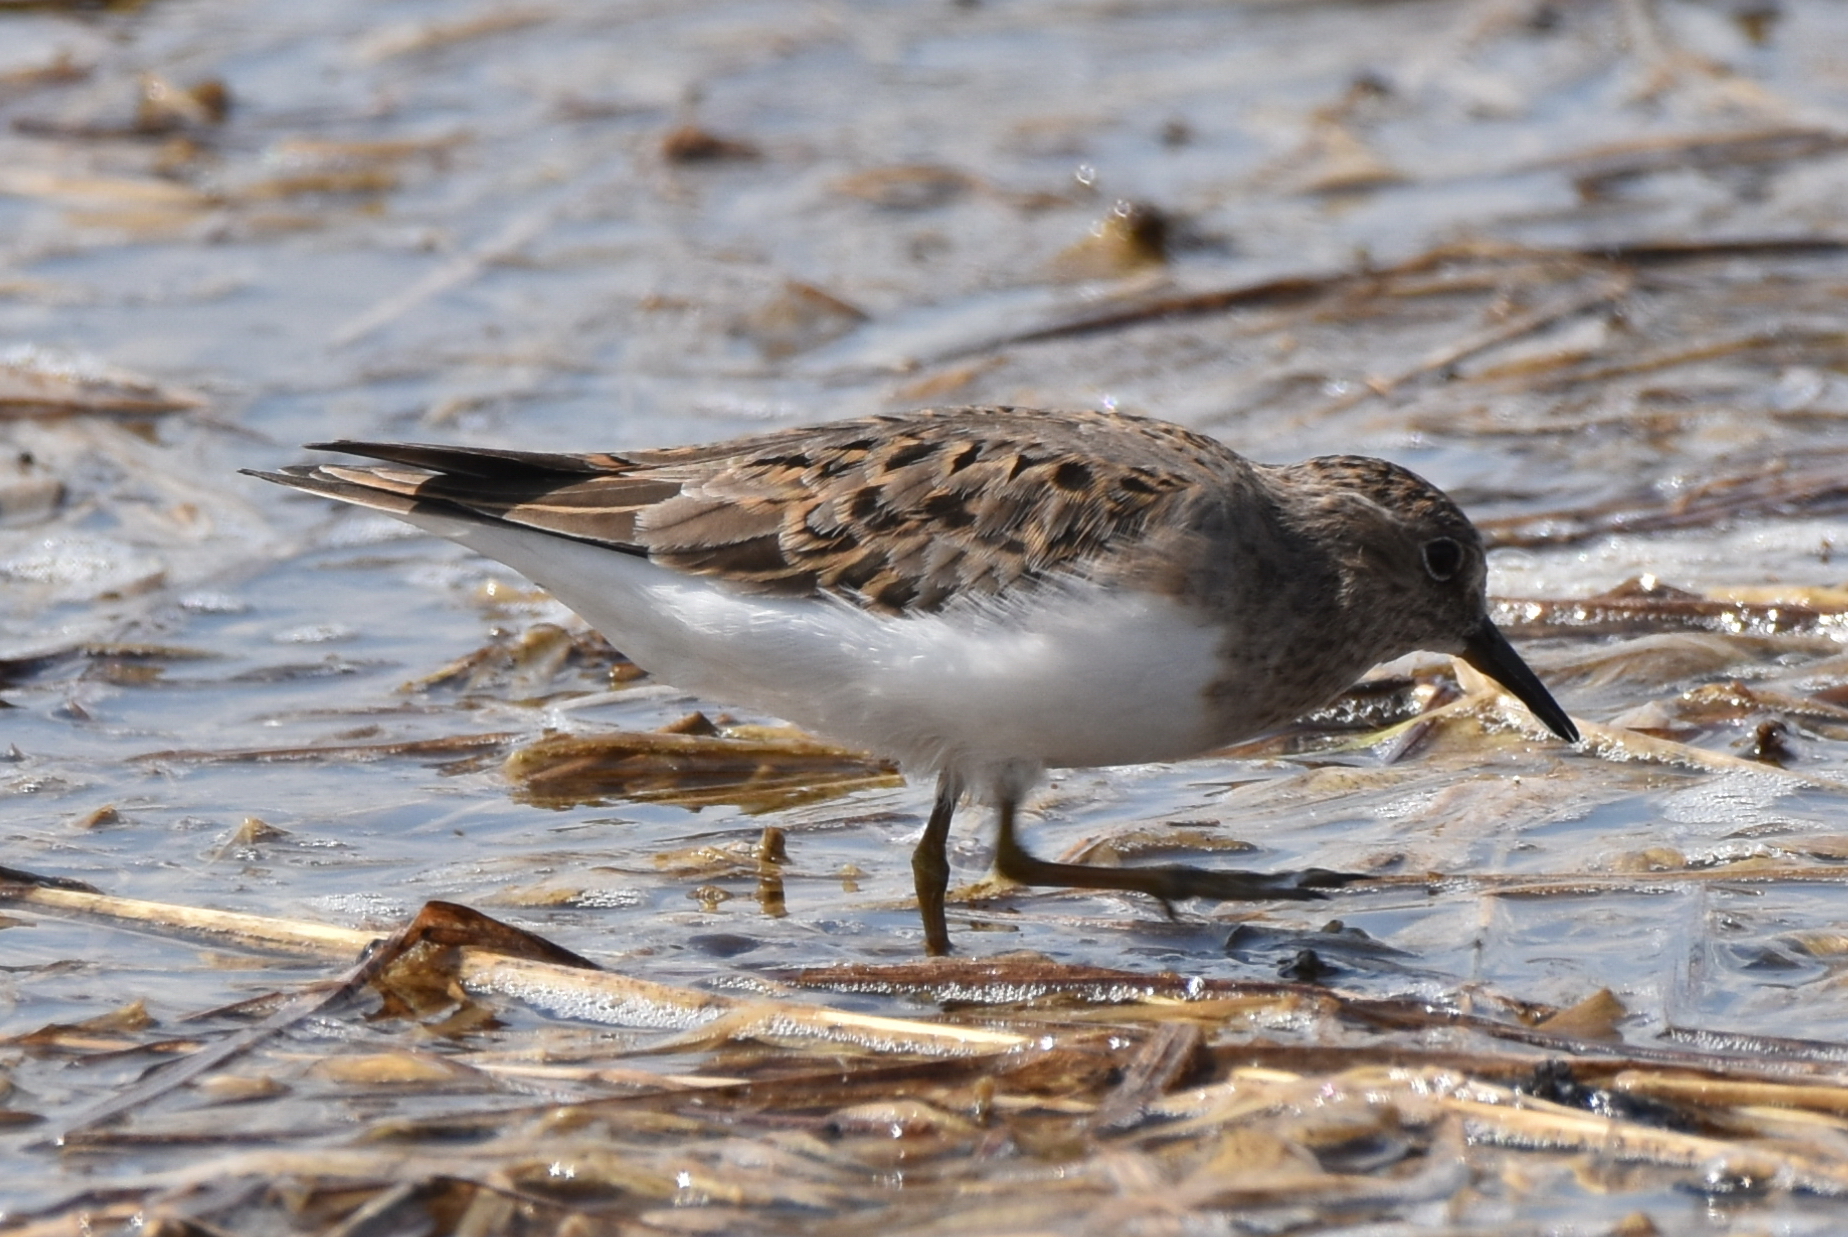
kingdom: Animalia
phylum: Chordata
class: Aves
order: Charadriiformes
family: Scolopacidae
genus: Calidris
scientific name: Calidris temminckii
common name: Temminck's stint
